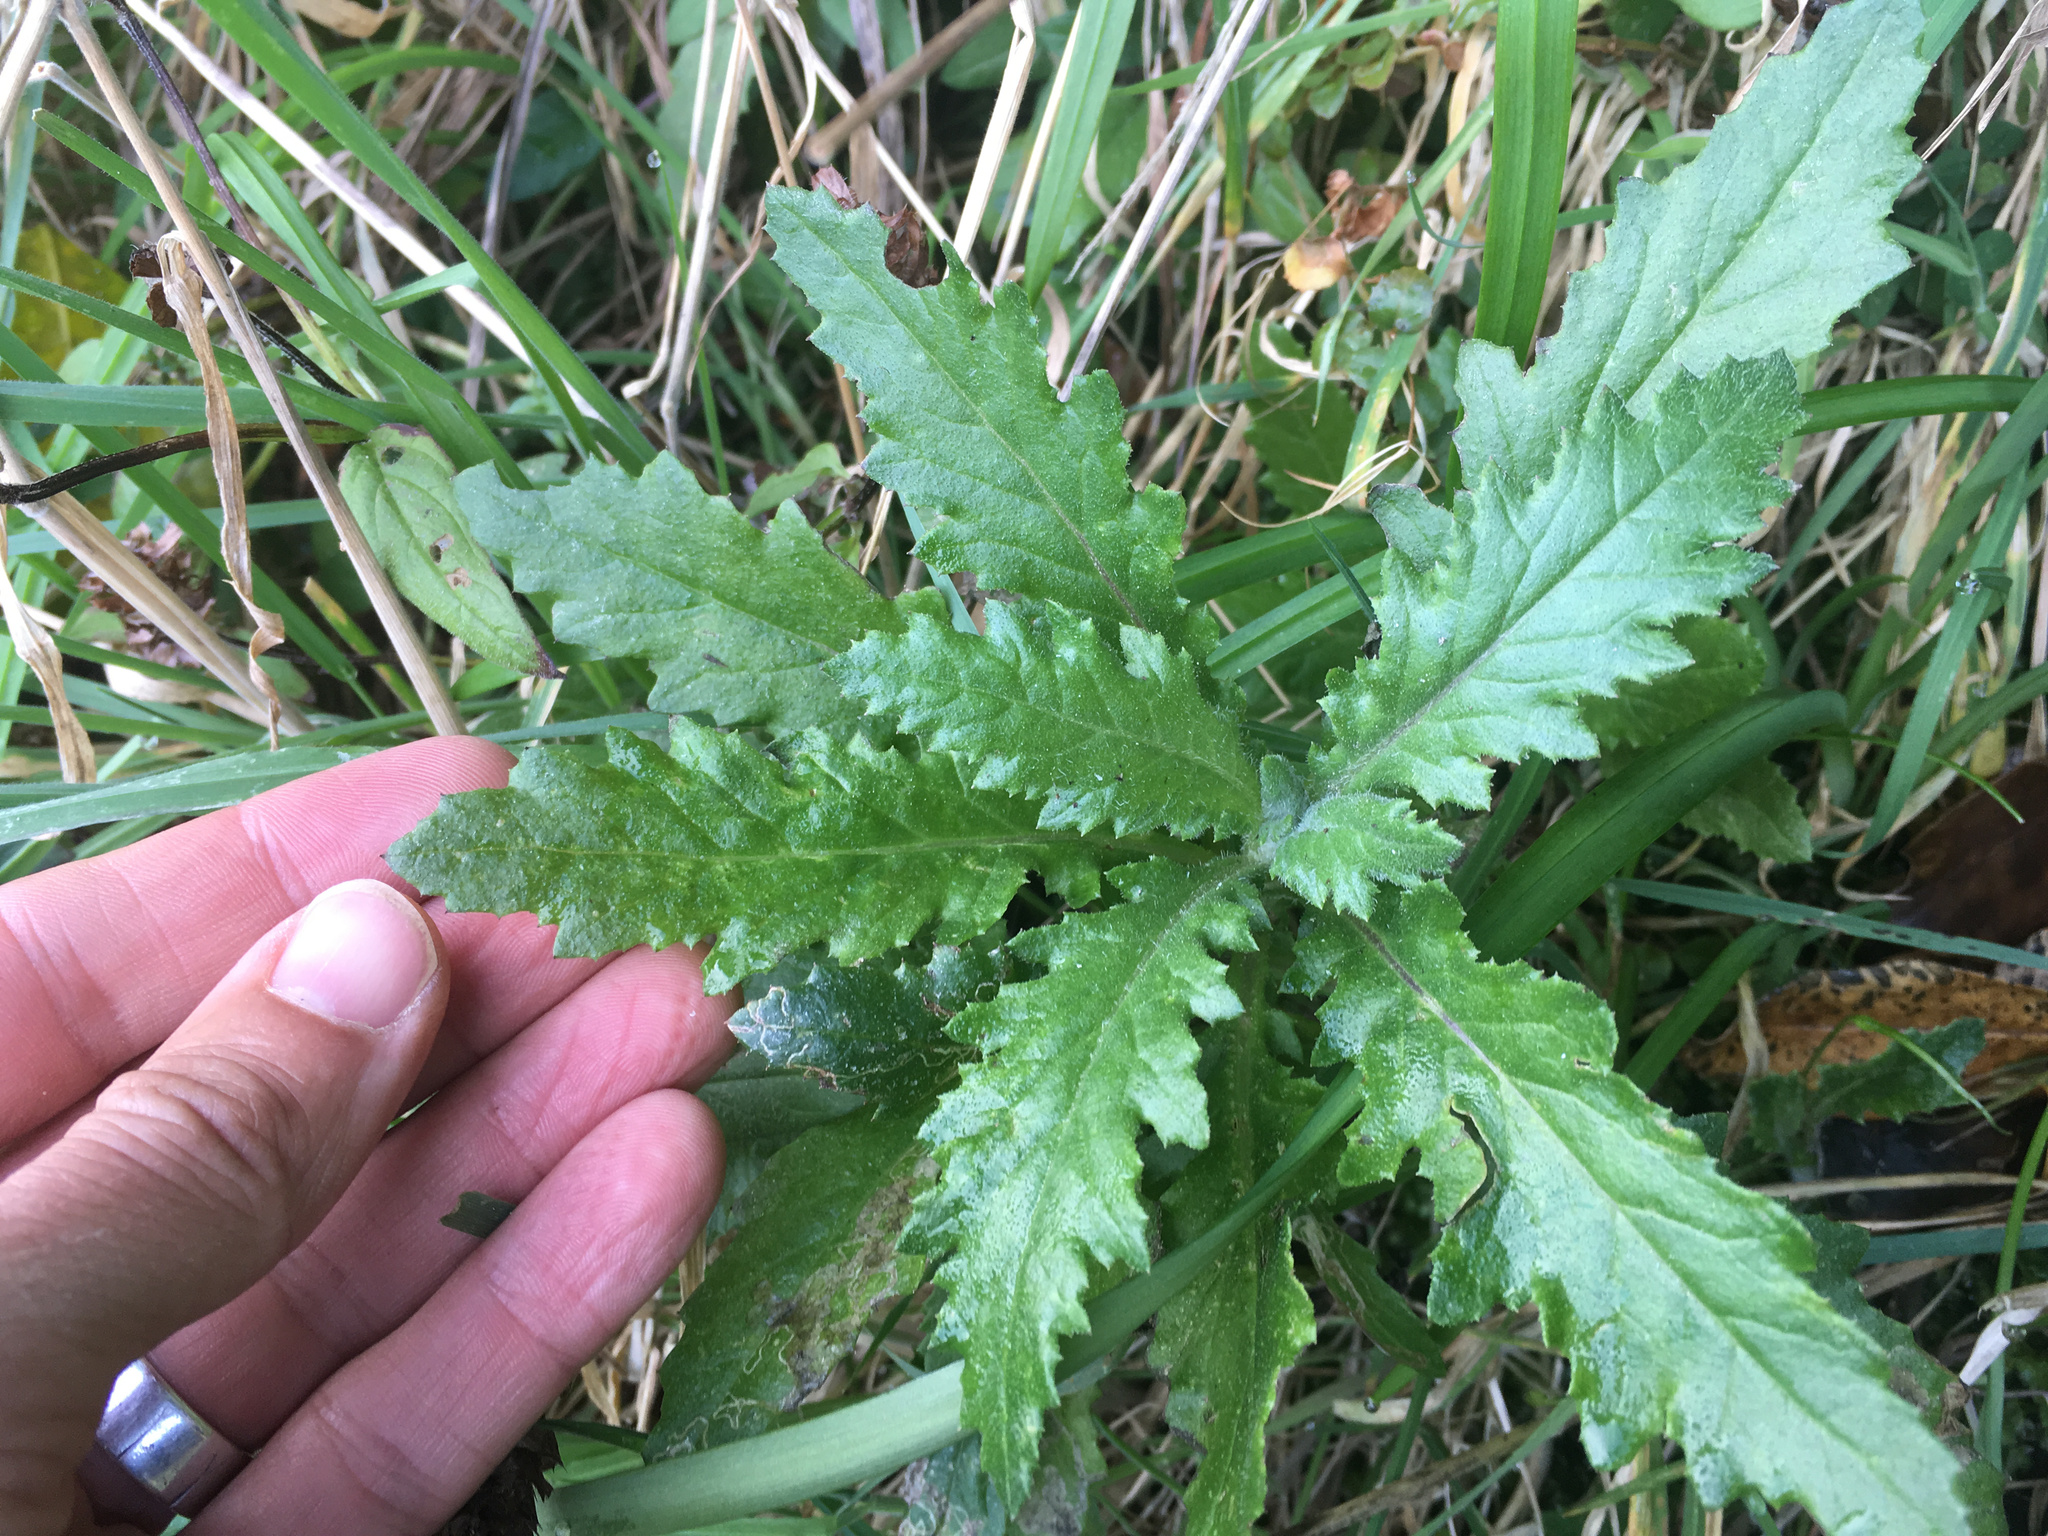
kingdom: Plantae
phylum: Tracheophyta
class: Magnoliopsida
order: Asterales
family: Asteraceae
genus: Senecio
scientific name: Senecio biserratus
